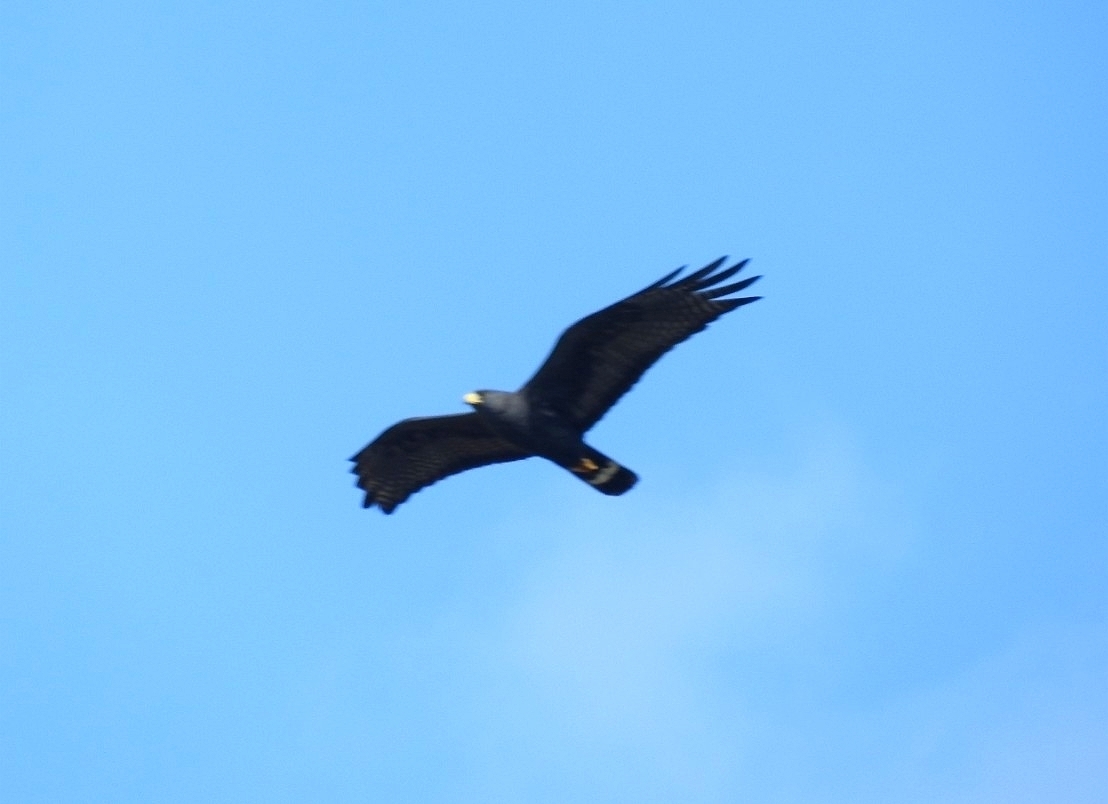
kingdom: Animalia
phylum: Chordata
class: Aves
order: Accipitriformes
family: Accipitridae
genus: Buteo
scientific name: Buteo albonotatus
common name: Zone-tailed hawk
